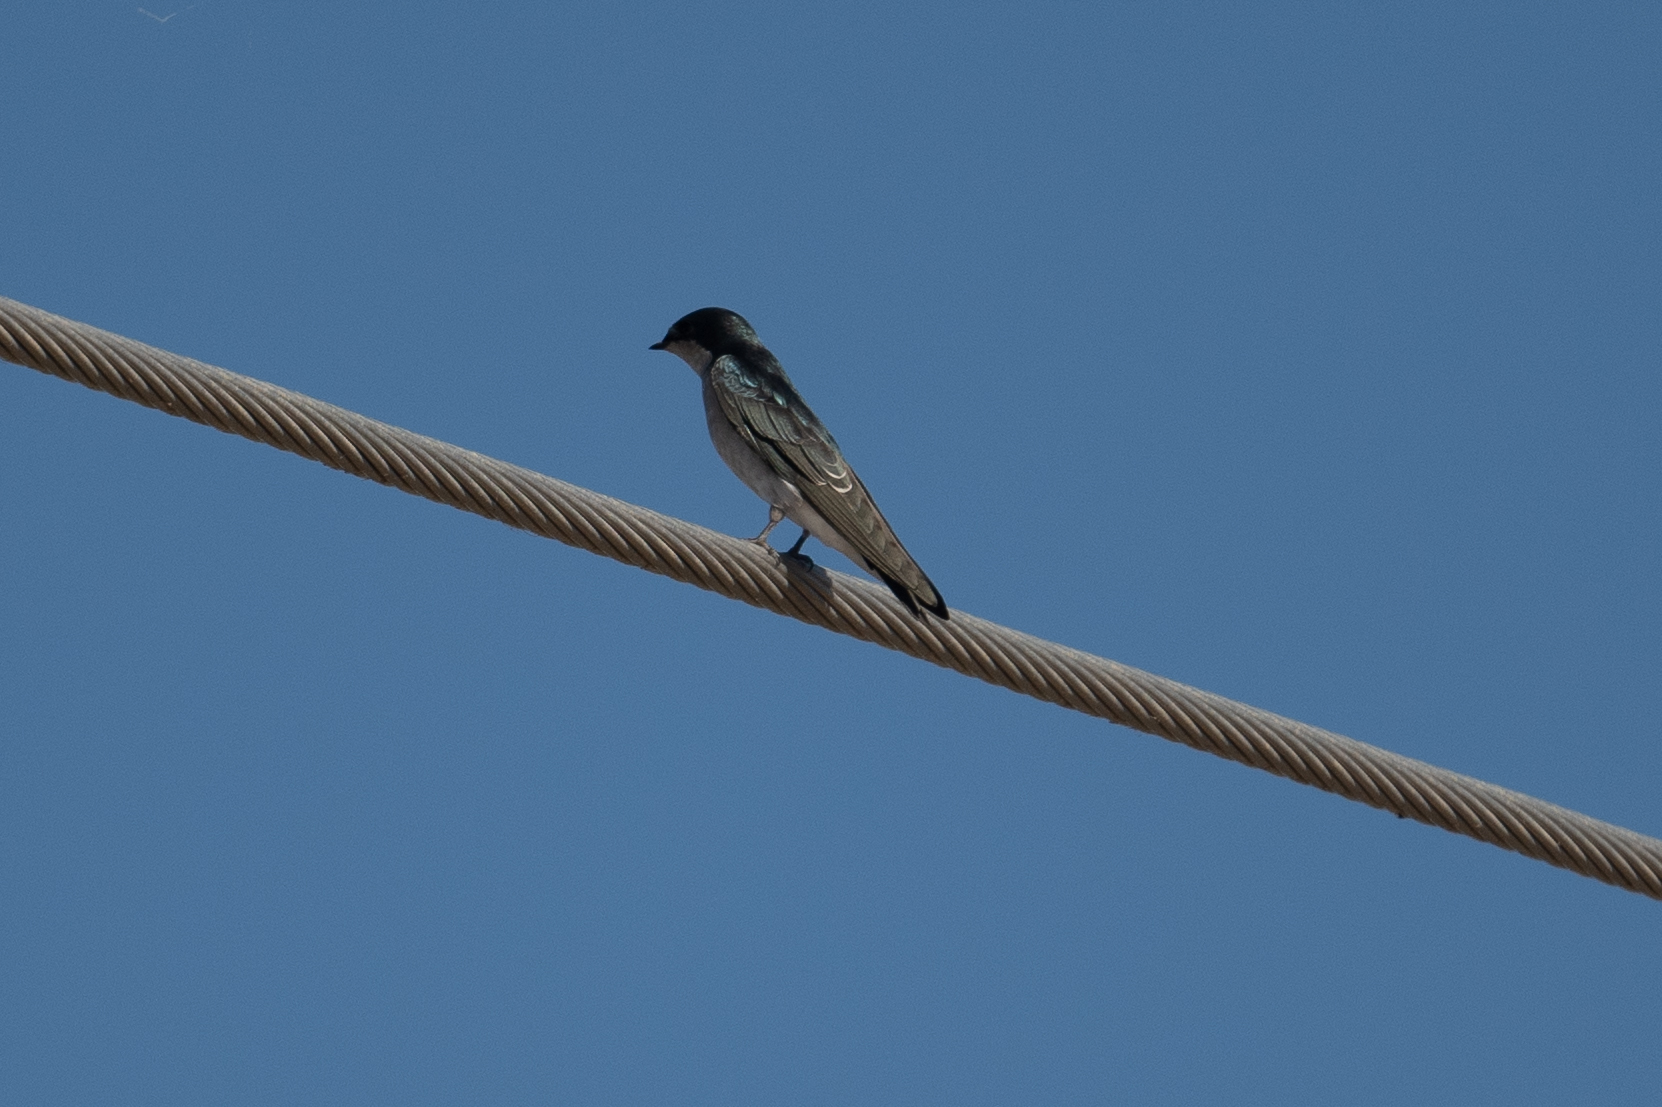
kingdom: Animalia
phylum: Chordata
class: Aves
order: Passeriformes
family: Hirundinidae
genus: Tachycineta
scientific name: Tachycineta bicolor
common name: Tree swallow
